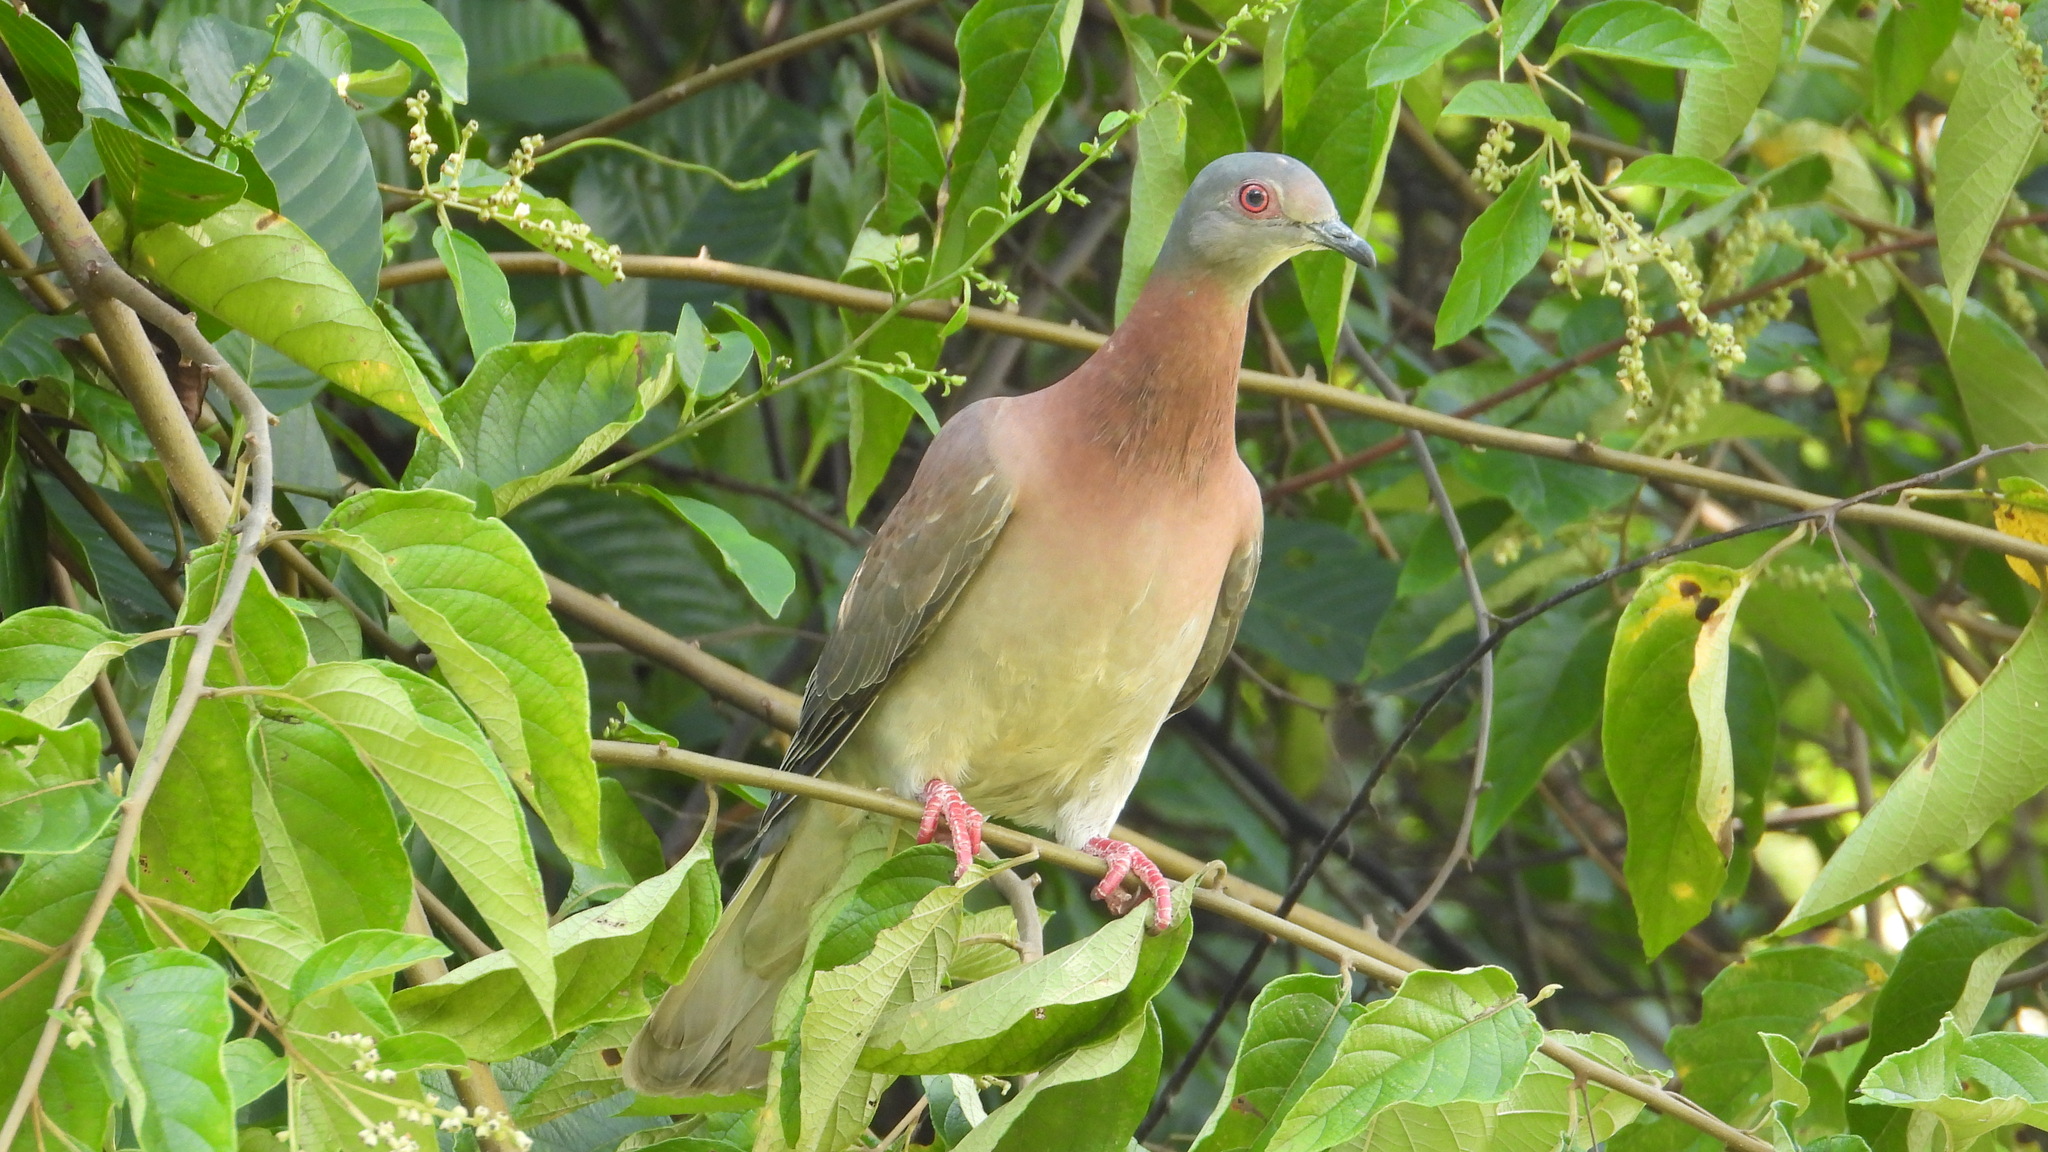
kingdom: Animalia
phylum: Chordata
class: Aves
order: Columbiformes
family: Columbidae
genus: Patagioenas
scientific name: Patagioenas cayennensis
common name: Pale-vented pigeon
